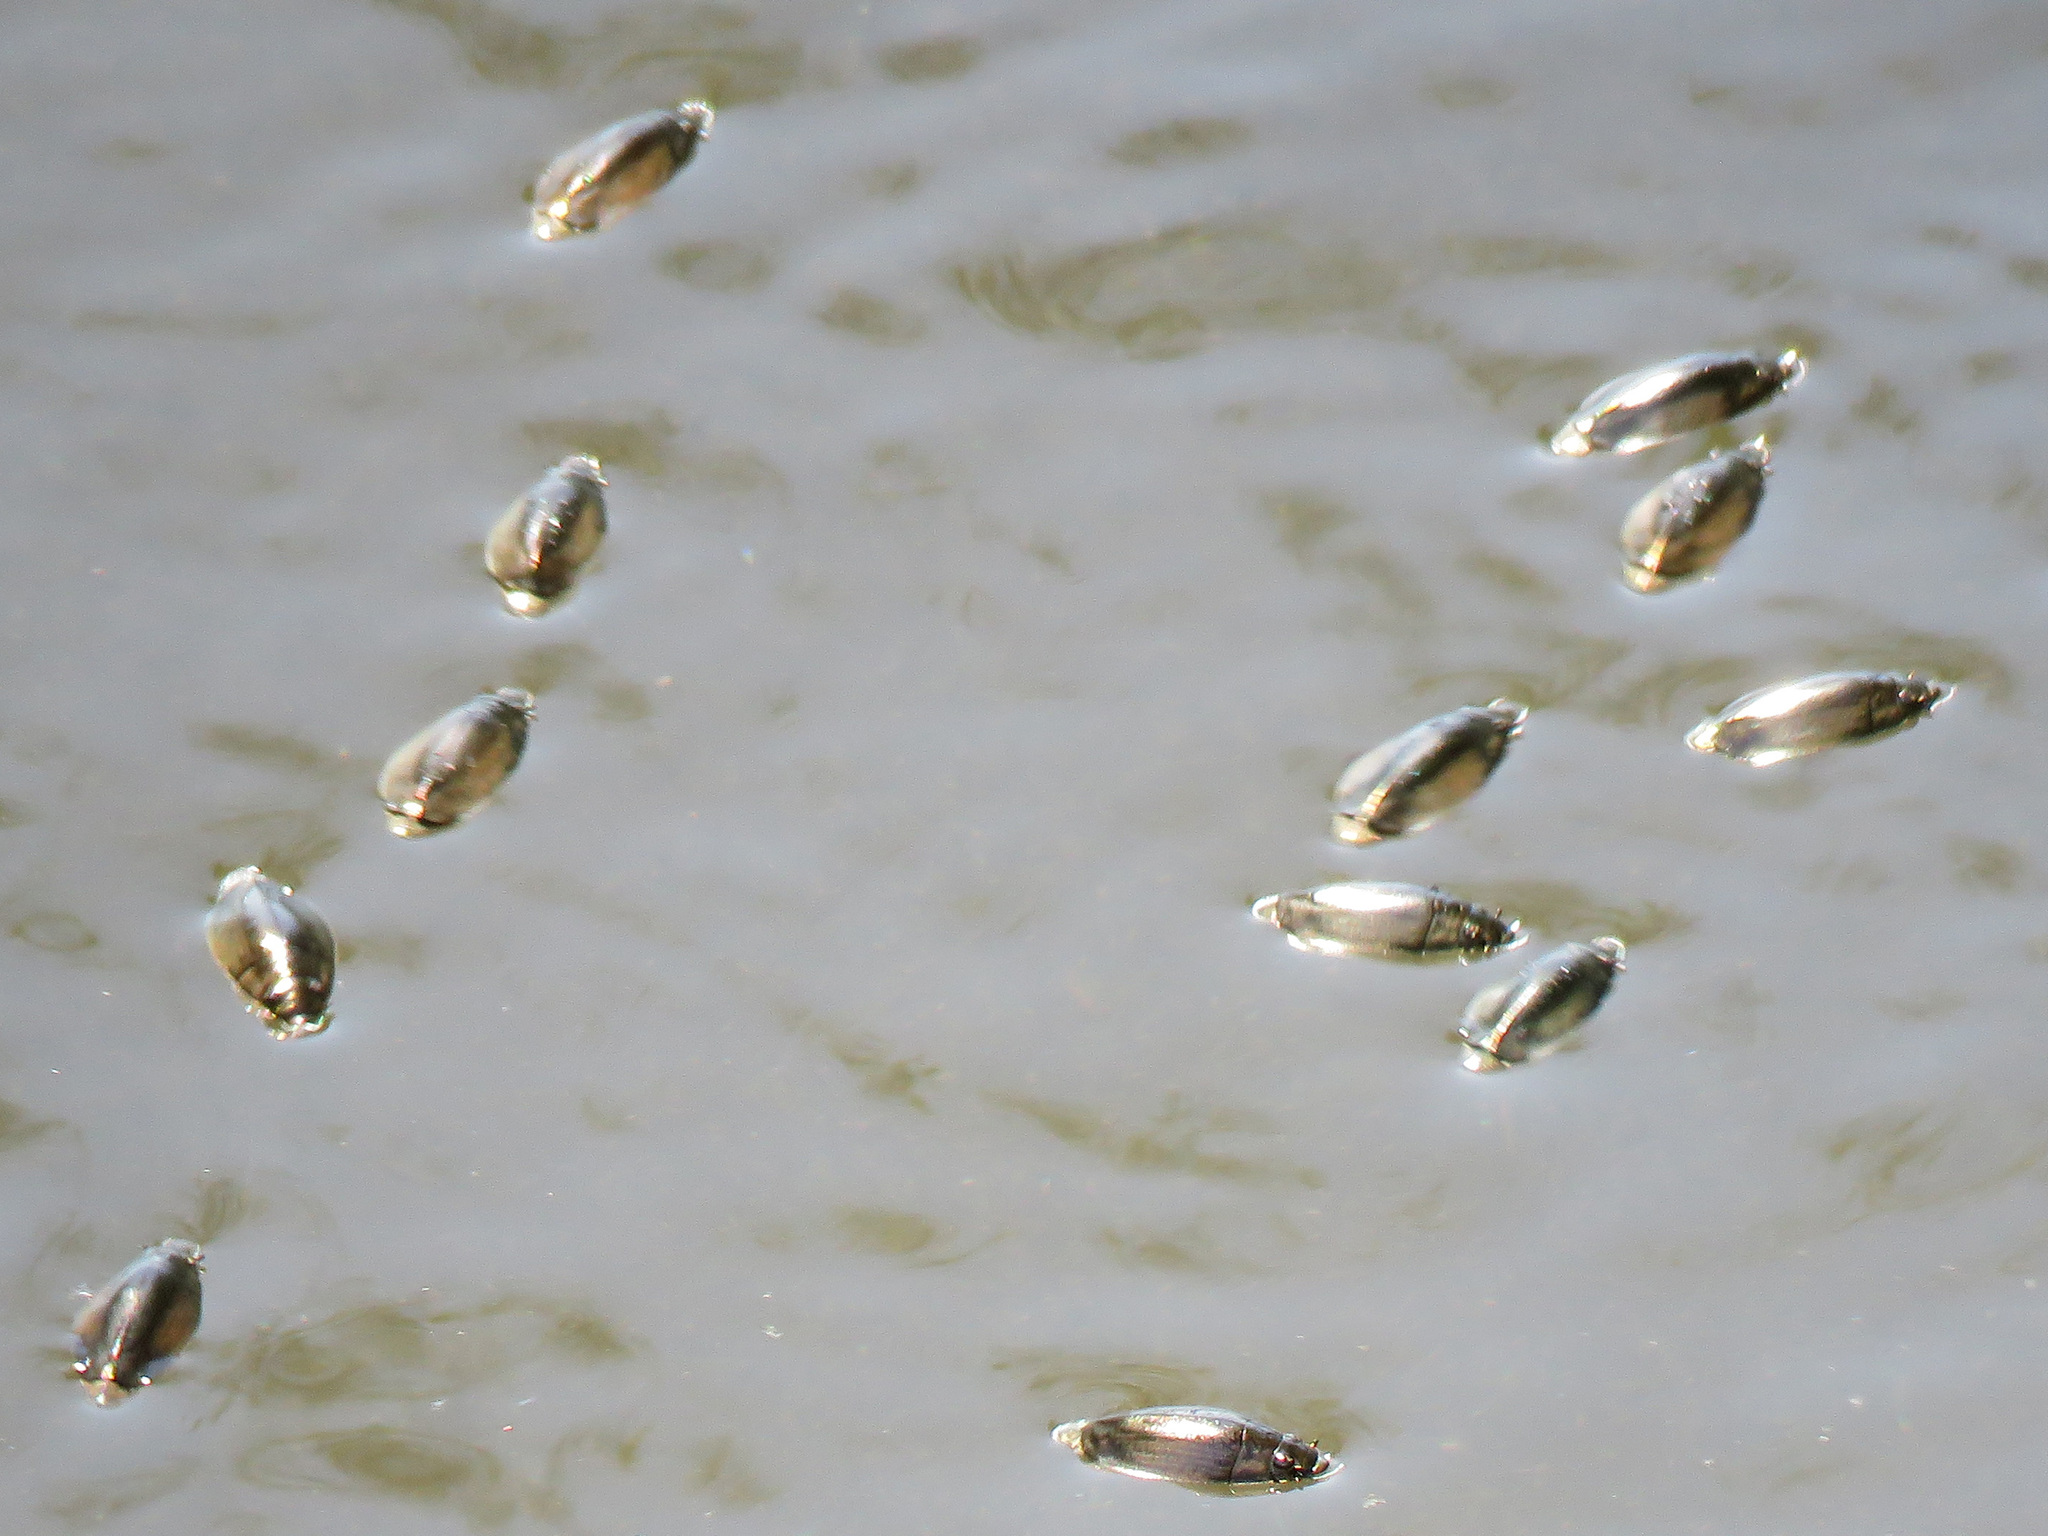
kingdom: Animalia
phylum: Arthropoda
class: Insecta
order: Coleoptera
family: Gyrinidae
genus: Dineutus
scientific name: Dineutus
